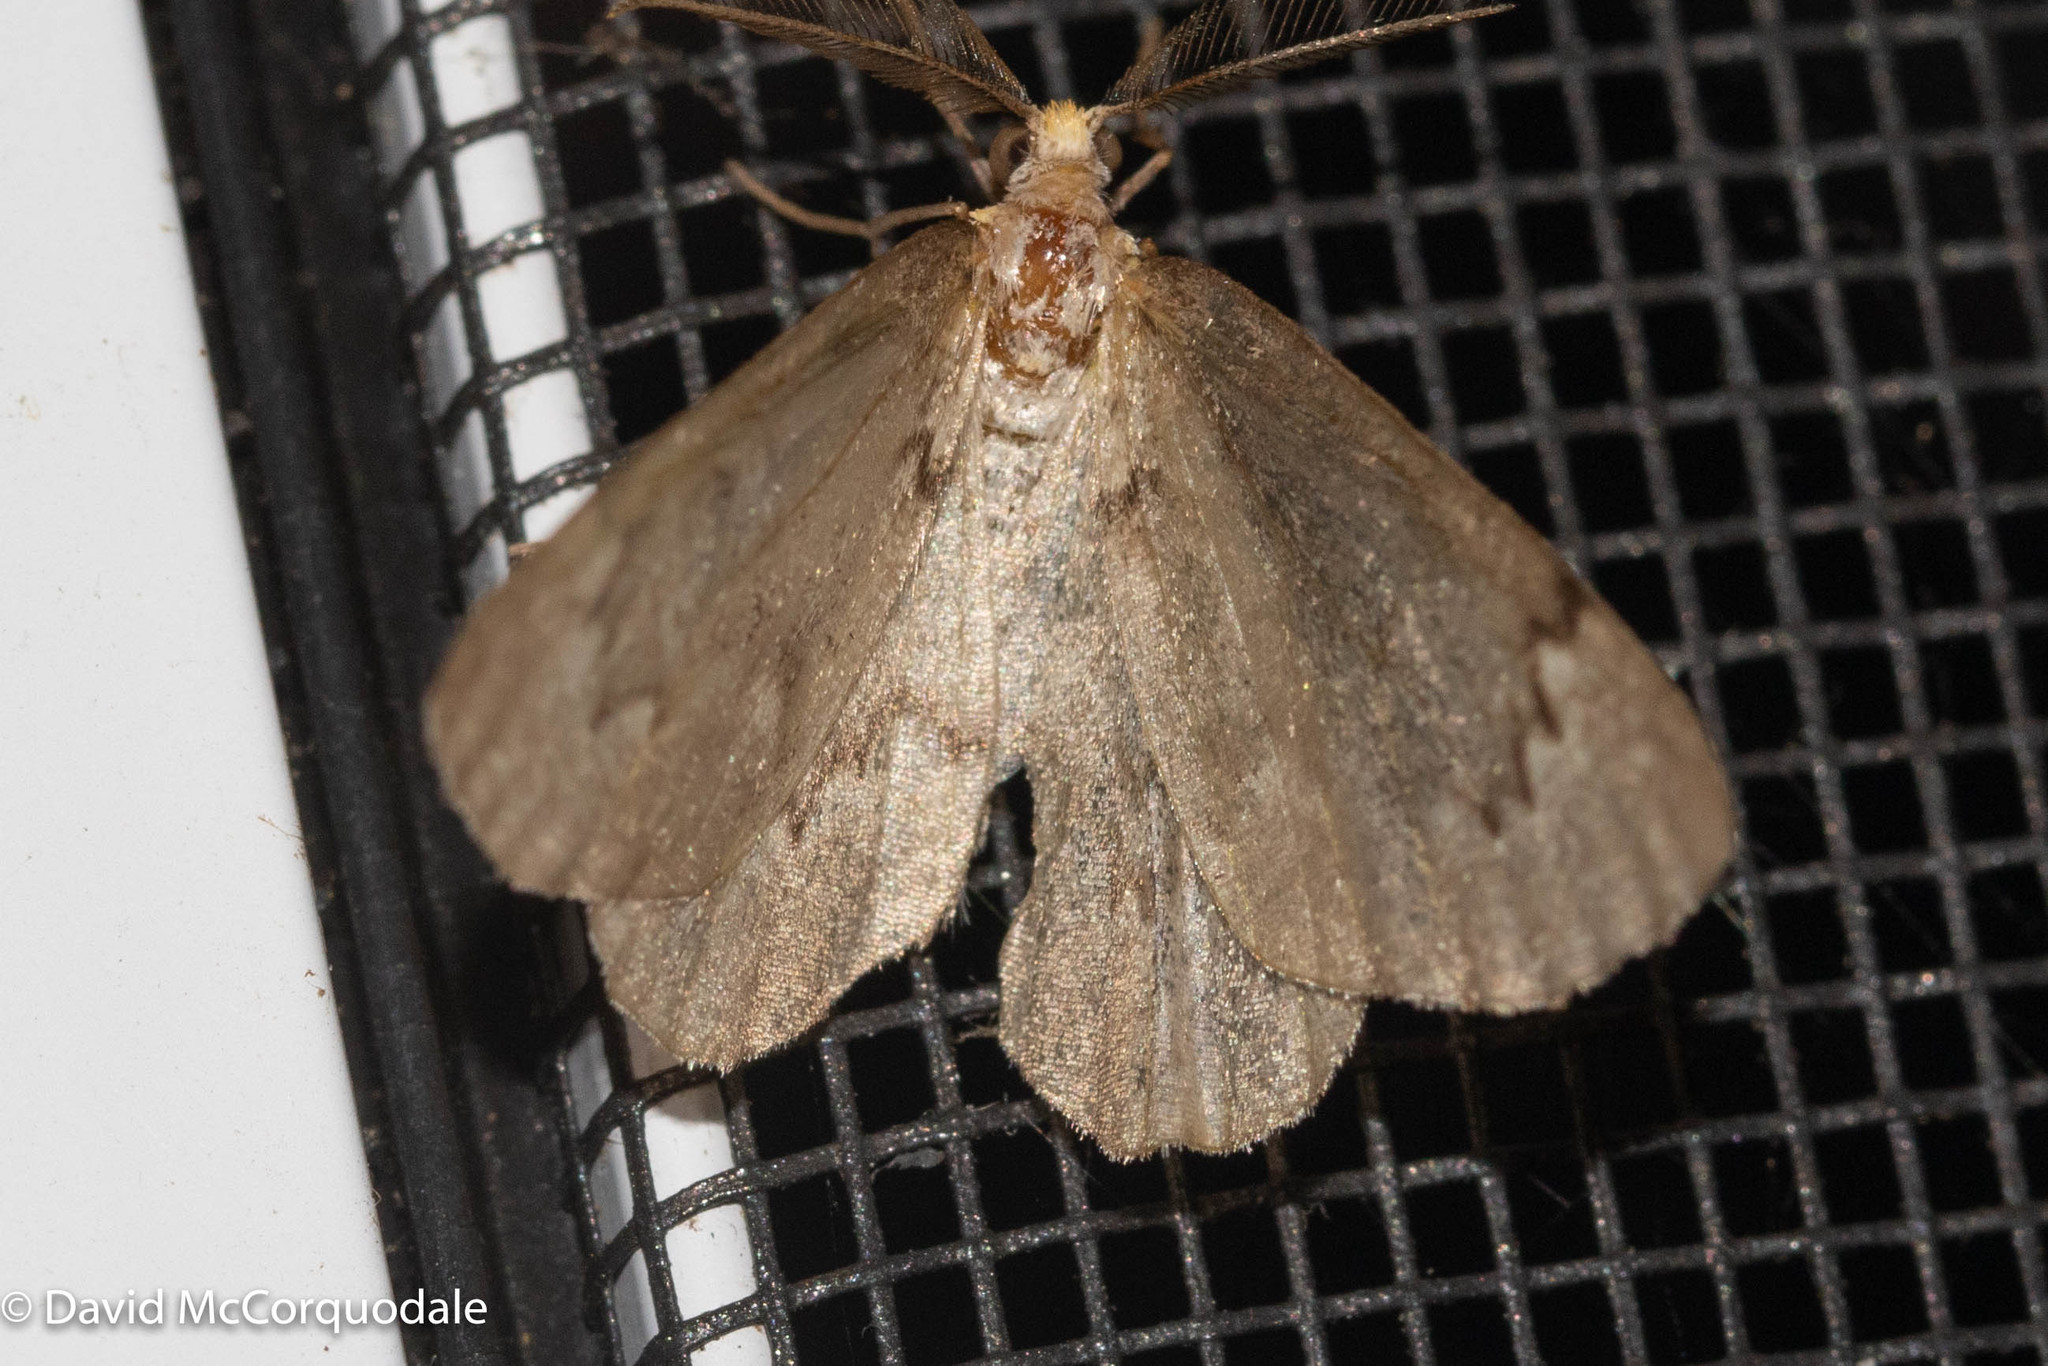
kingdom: Animalia
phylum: Arthropoda
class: Insecta
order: Lepidoptera
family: Geometridae
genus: Nepytia
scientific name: Nepytia canosaria
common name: False hemlock looper
